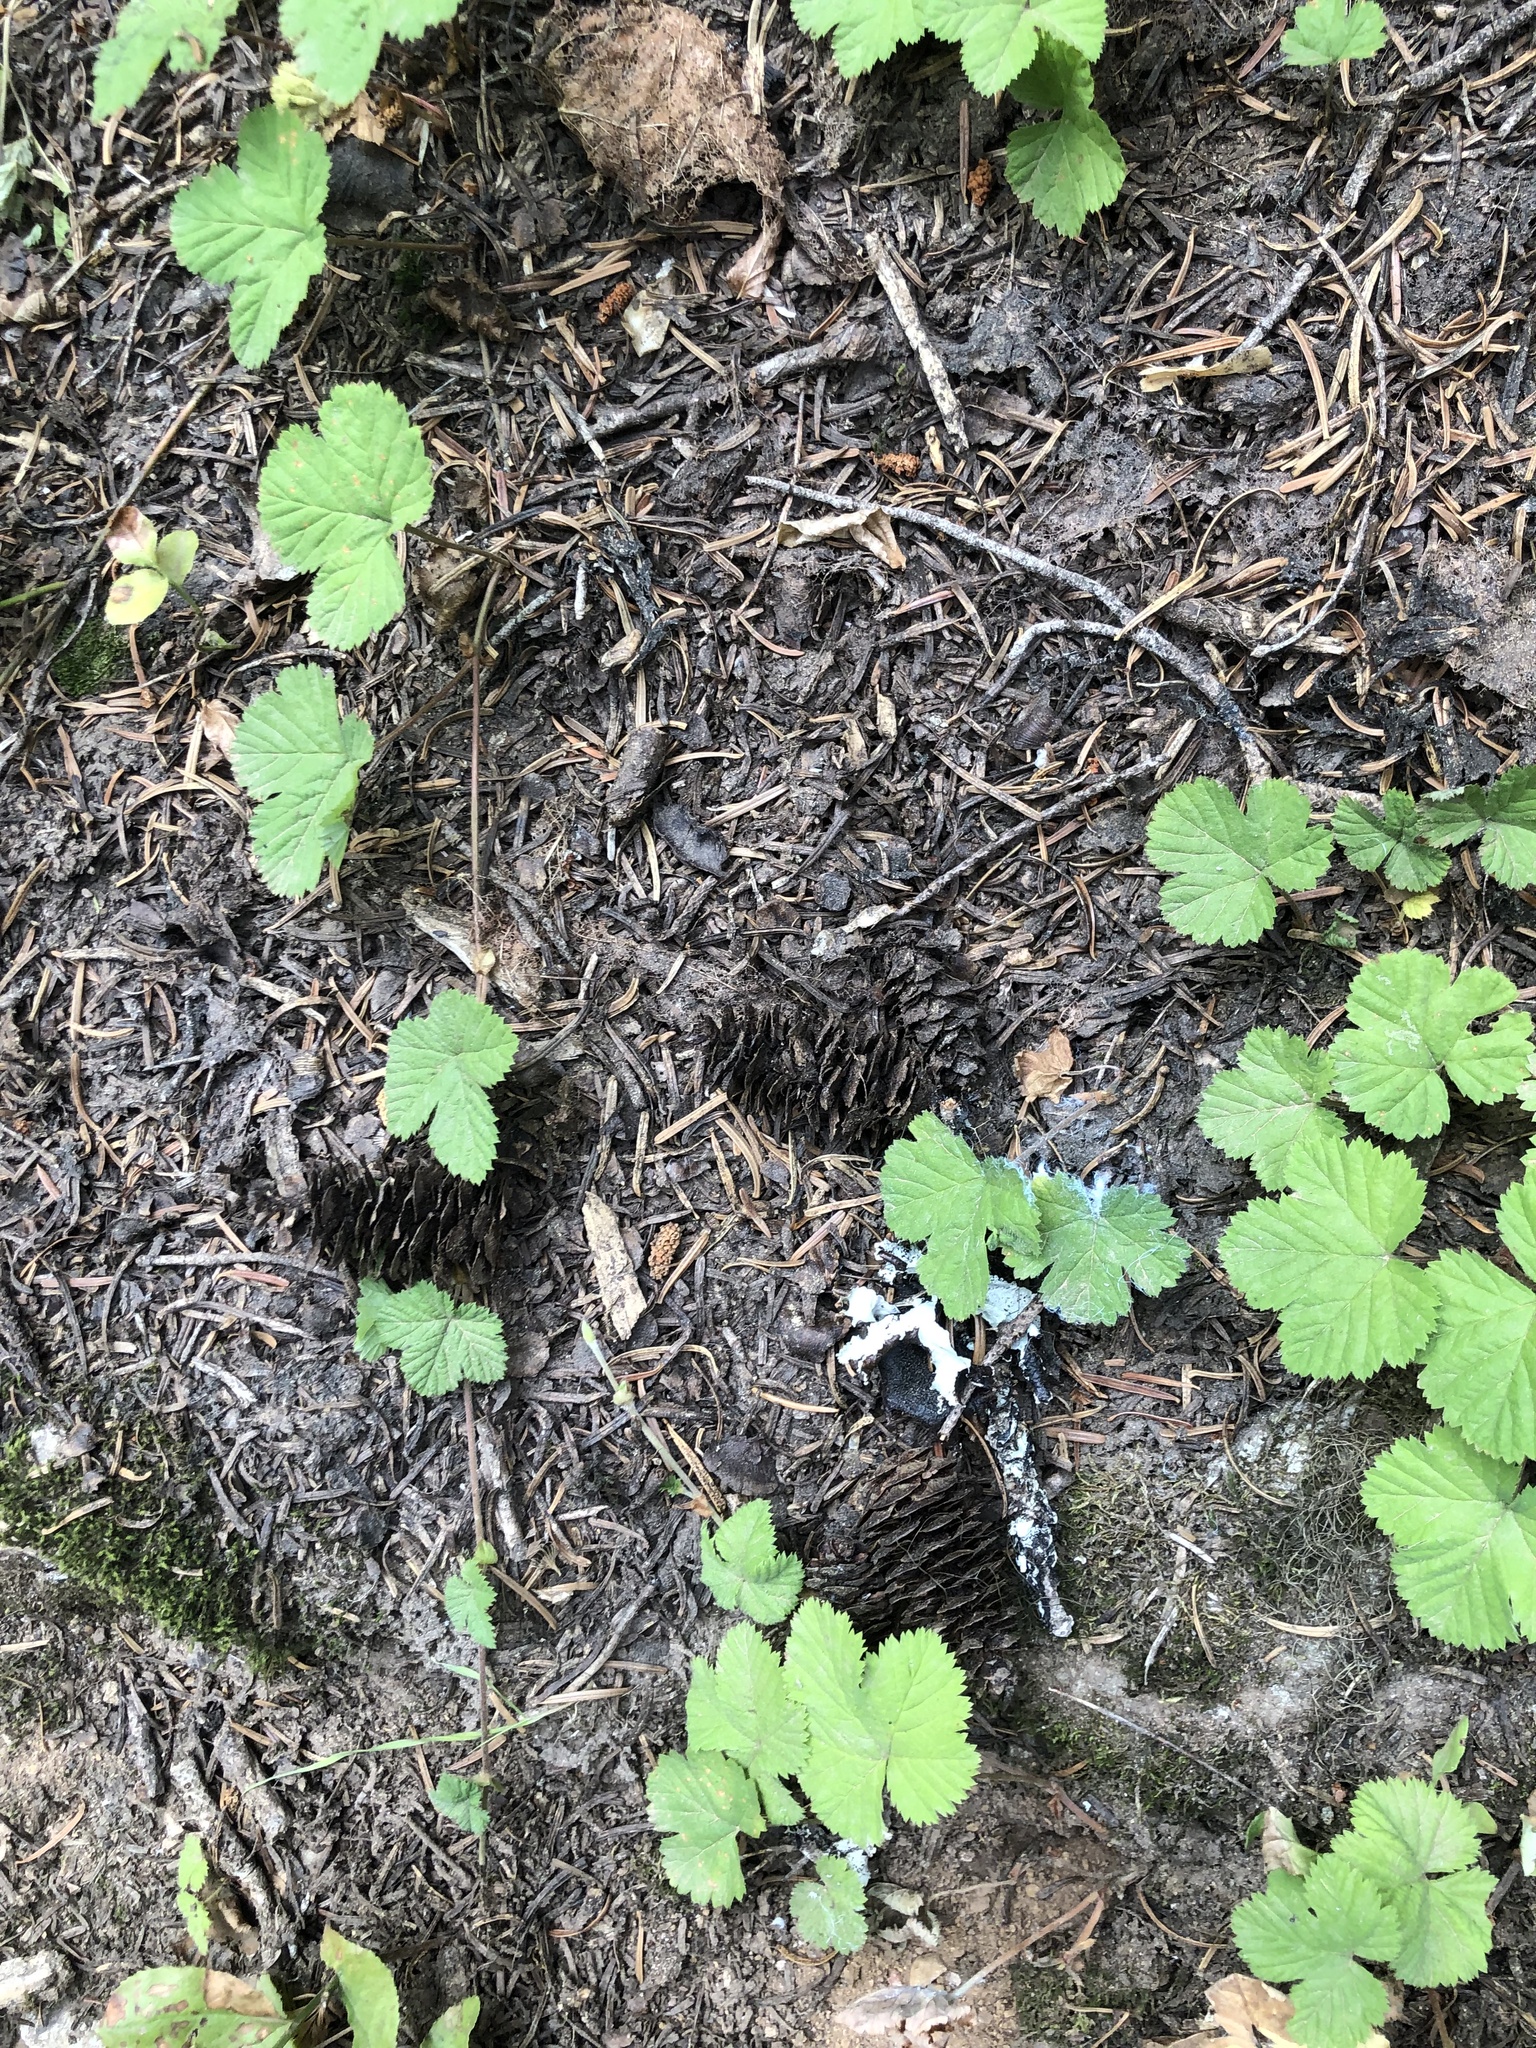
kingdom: Plantae
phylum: Tracheophyta
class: Pinopsida
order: Pinales
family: Pinaceae
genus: Tsuga
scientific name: Tsuga mertensiana
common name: Mountain hemlock
